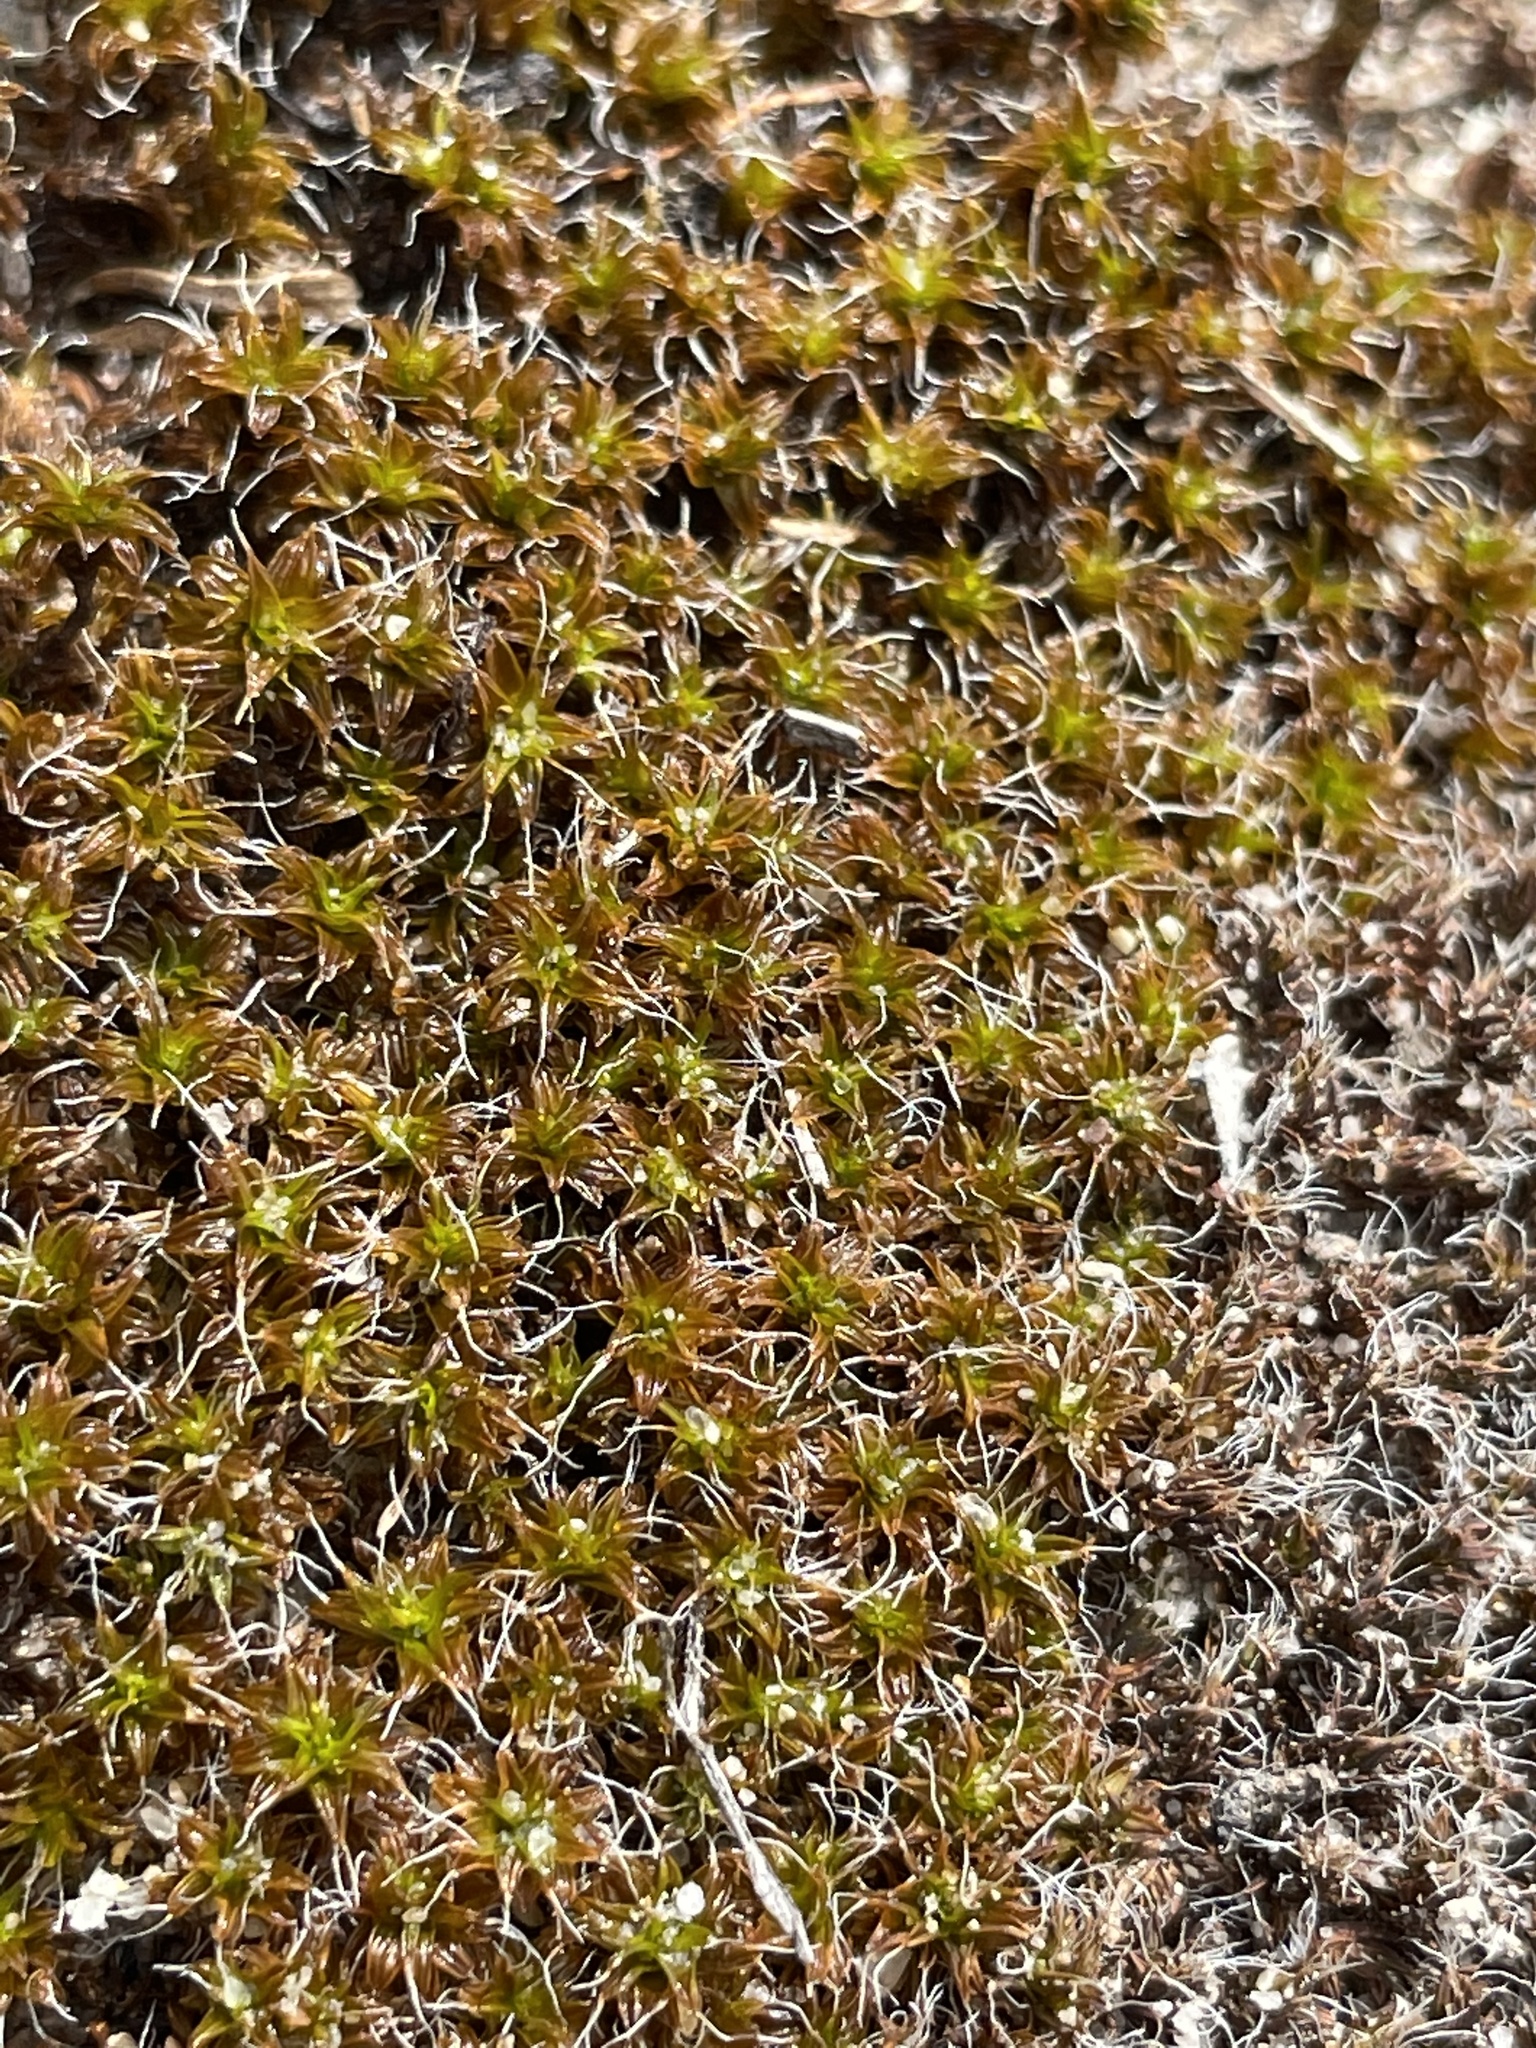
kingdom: Plantae
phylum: Bryophyta
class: Bryopsida
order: Pottiales
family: Pottiaceae
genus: Syntrichia
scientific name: Syntrichia ruralis
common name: Sidewalk screw moss
